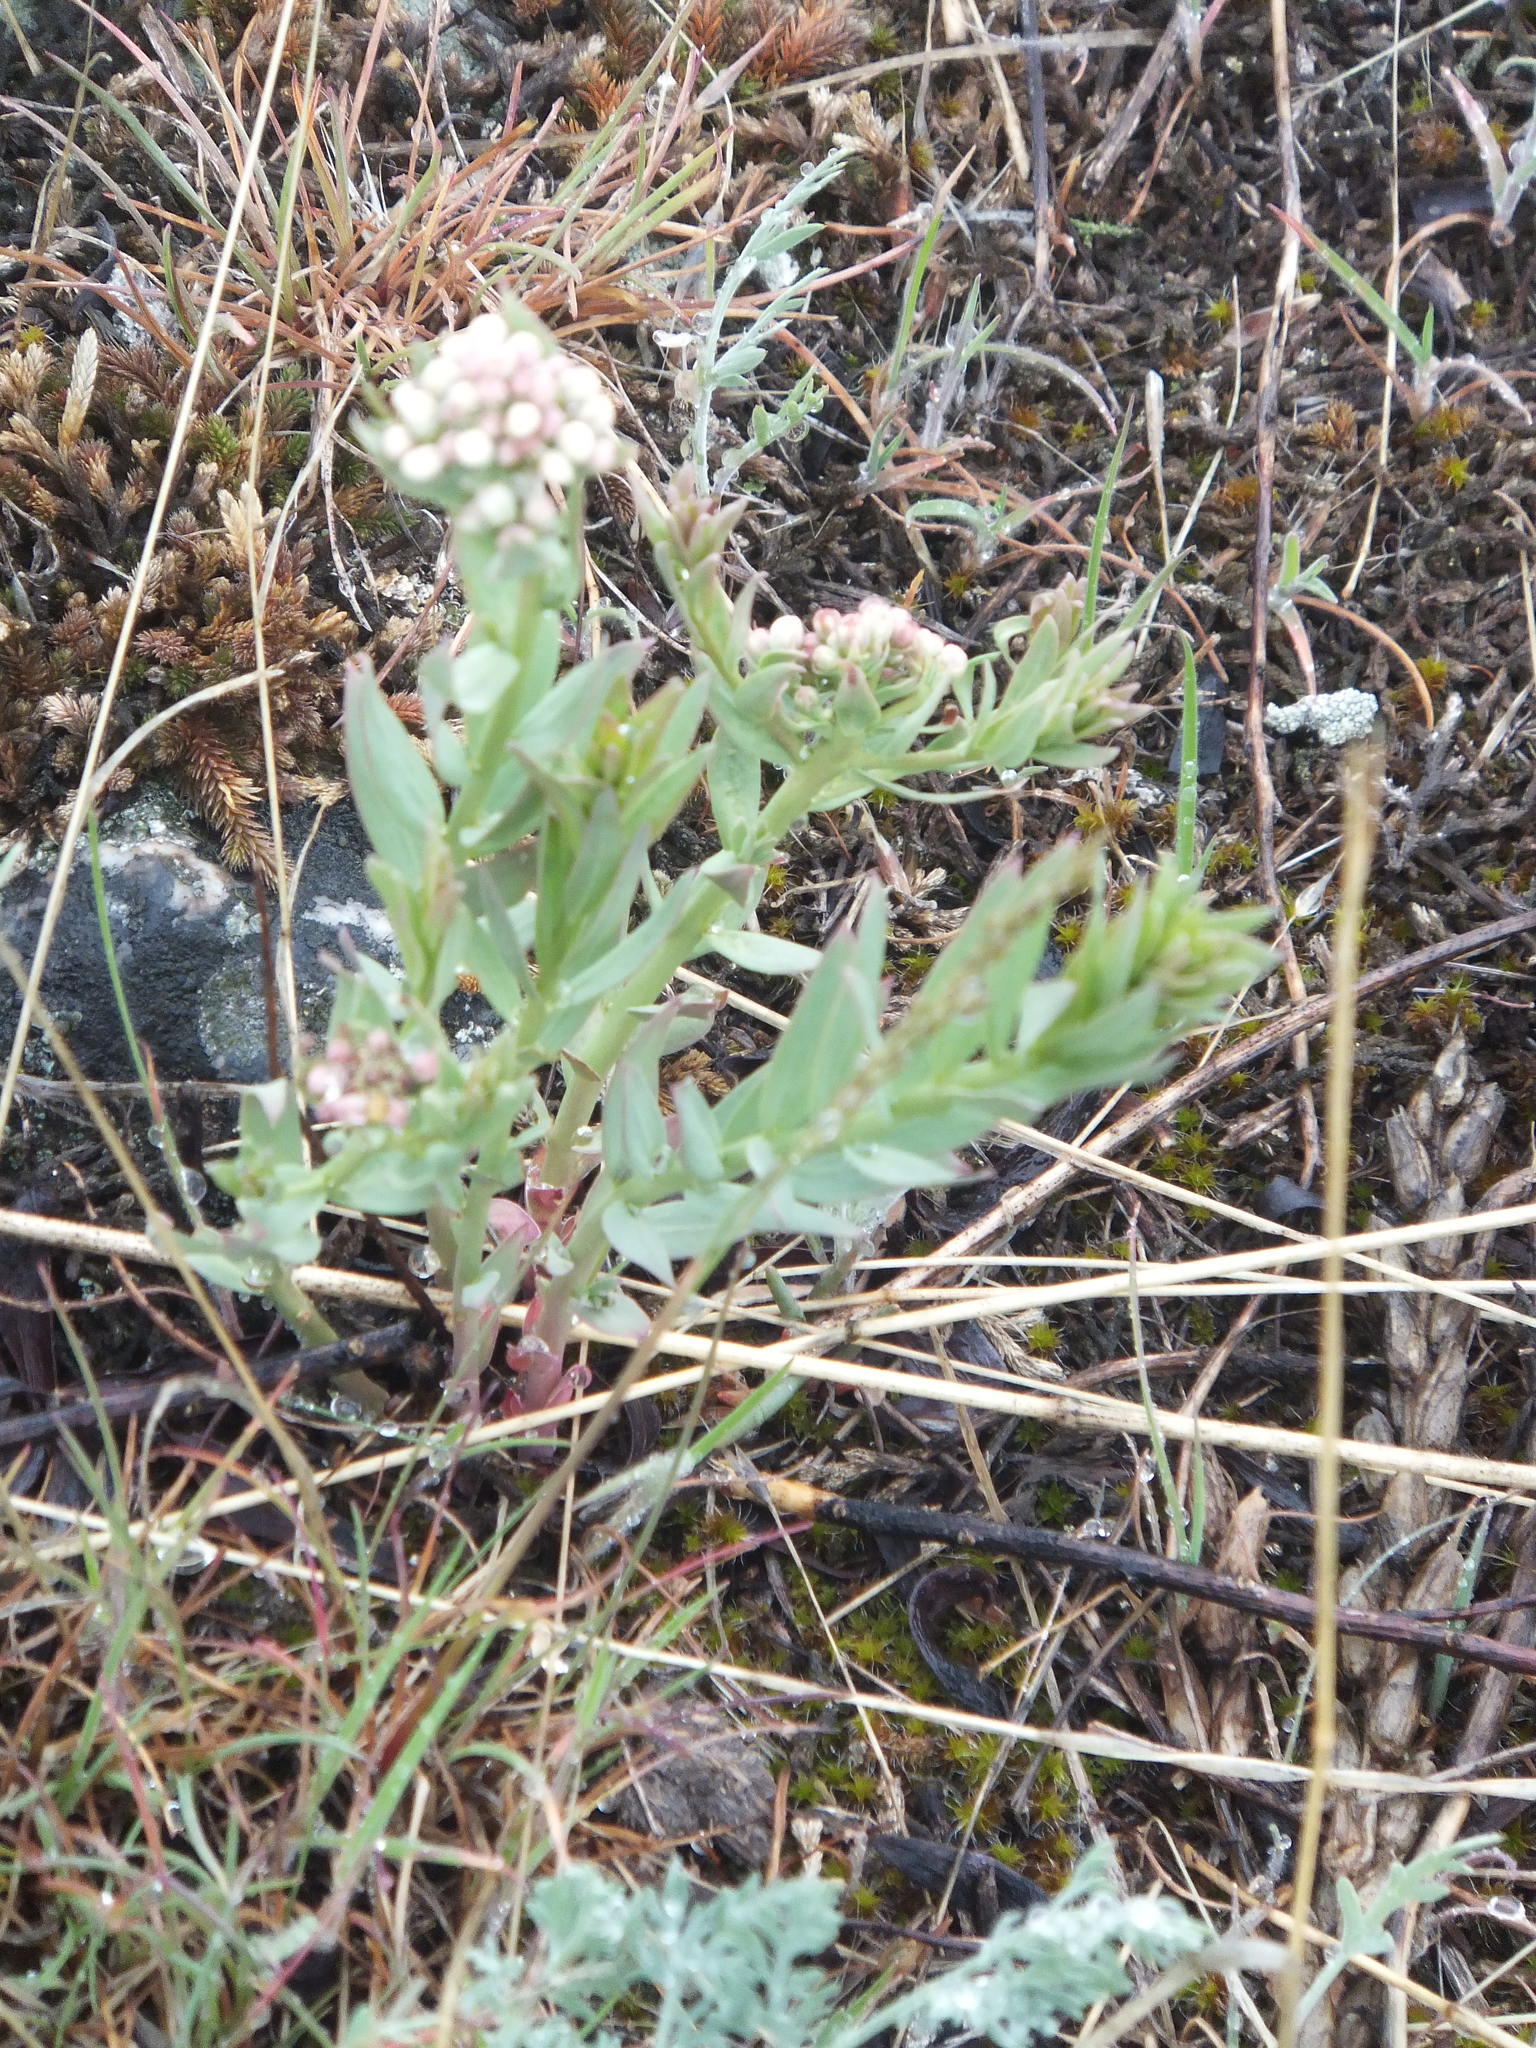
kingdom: Plantae
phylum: Tracheophyta
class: Magnoliopsida
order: Santalales
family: Comandraceae
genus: Comandra
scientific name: Comandra umbellata
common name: Bastard toadflax
